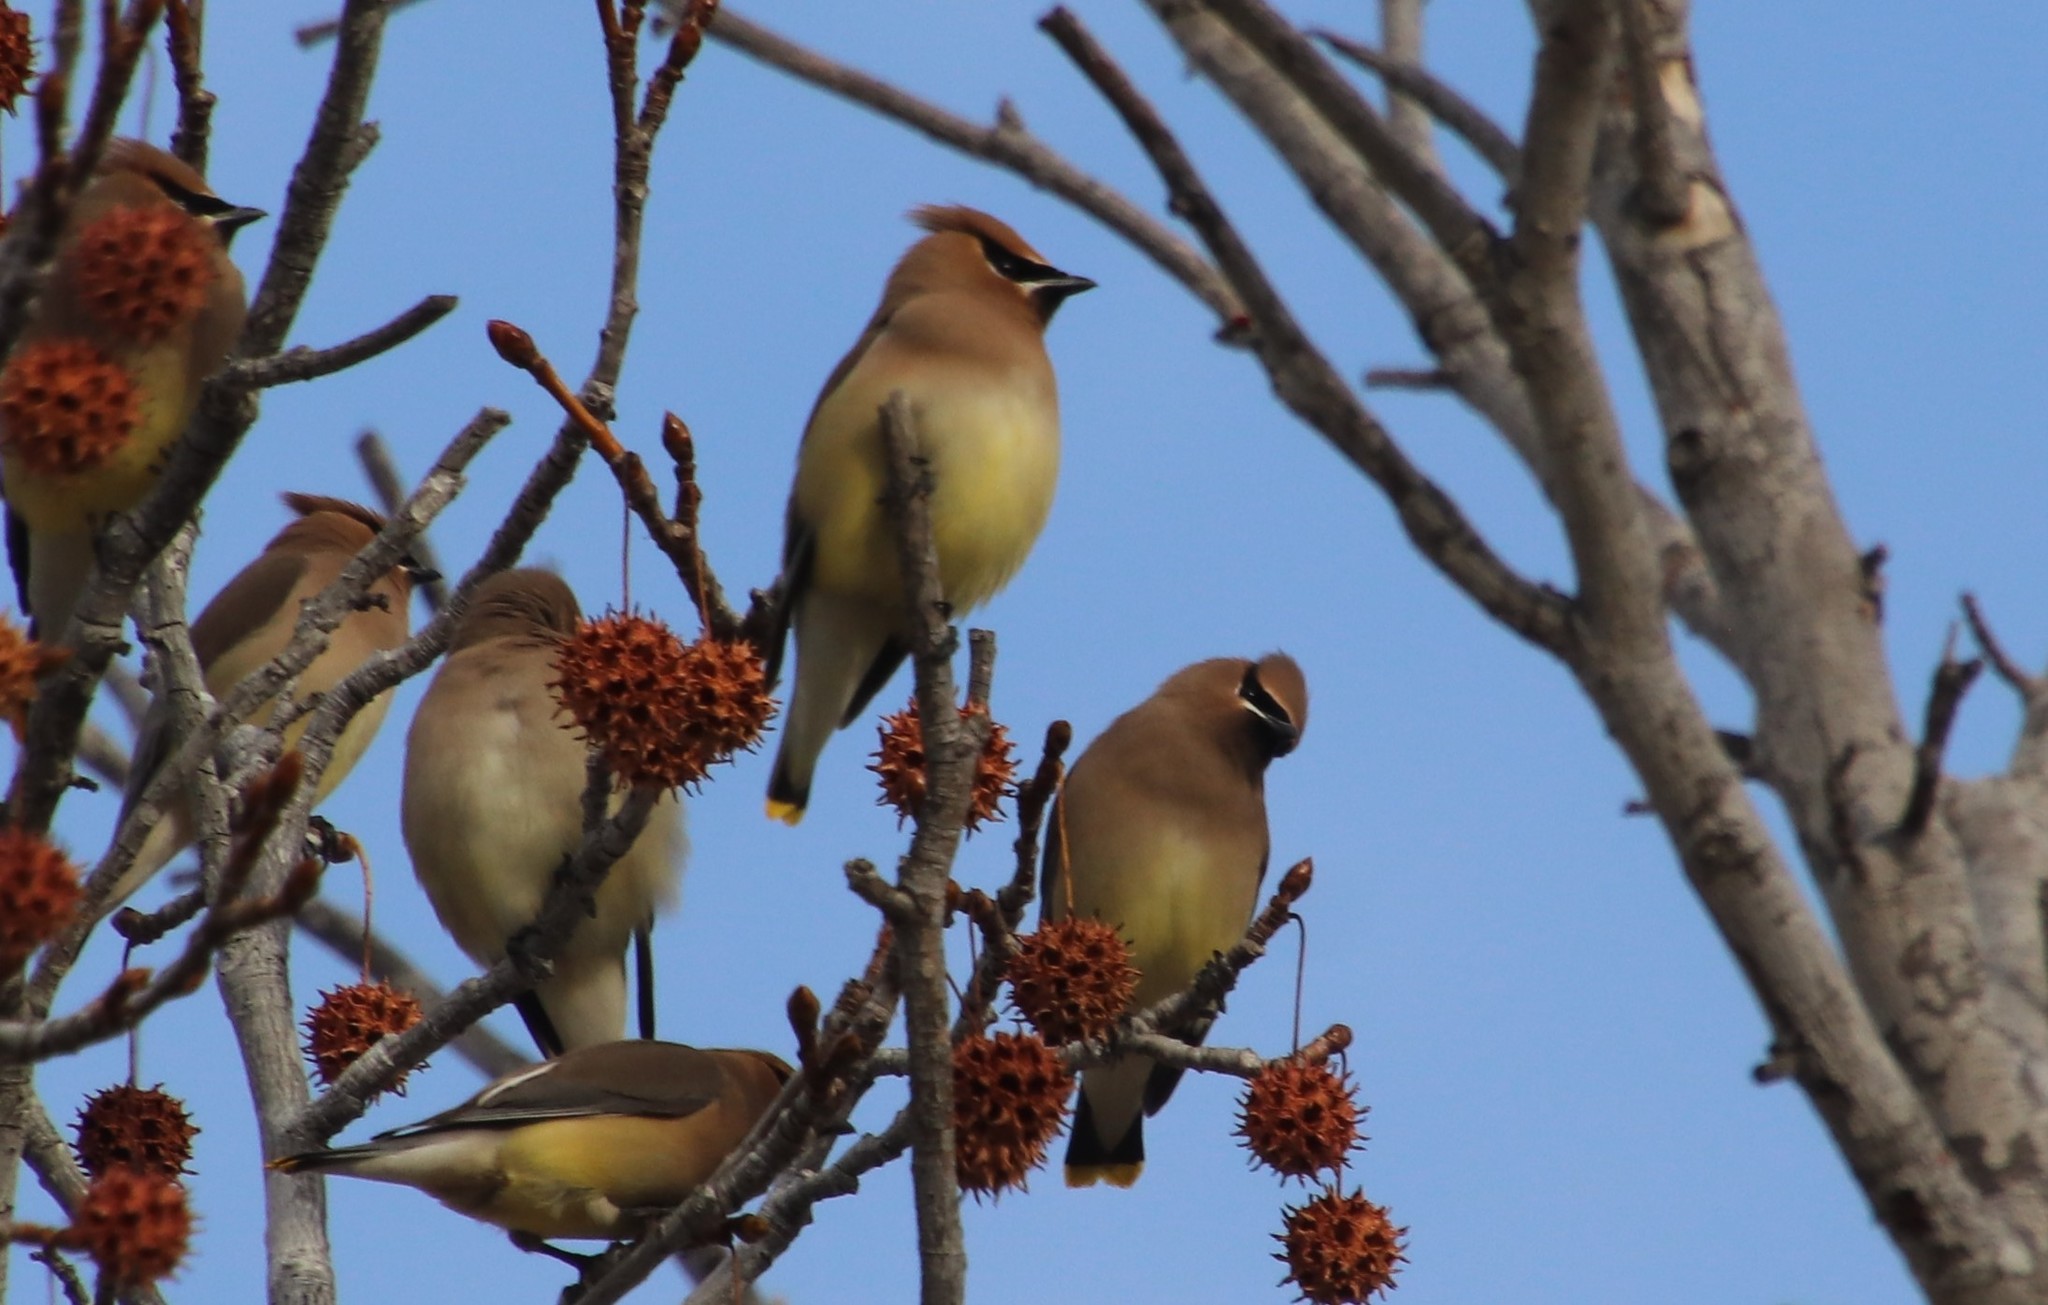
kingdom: Animalia
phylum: Chordata
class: Aves
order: Passeriformes
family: Bombycillidae
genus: Bombycilla
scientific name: Bombycilla cedrorum
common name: Cedar waxwing
